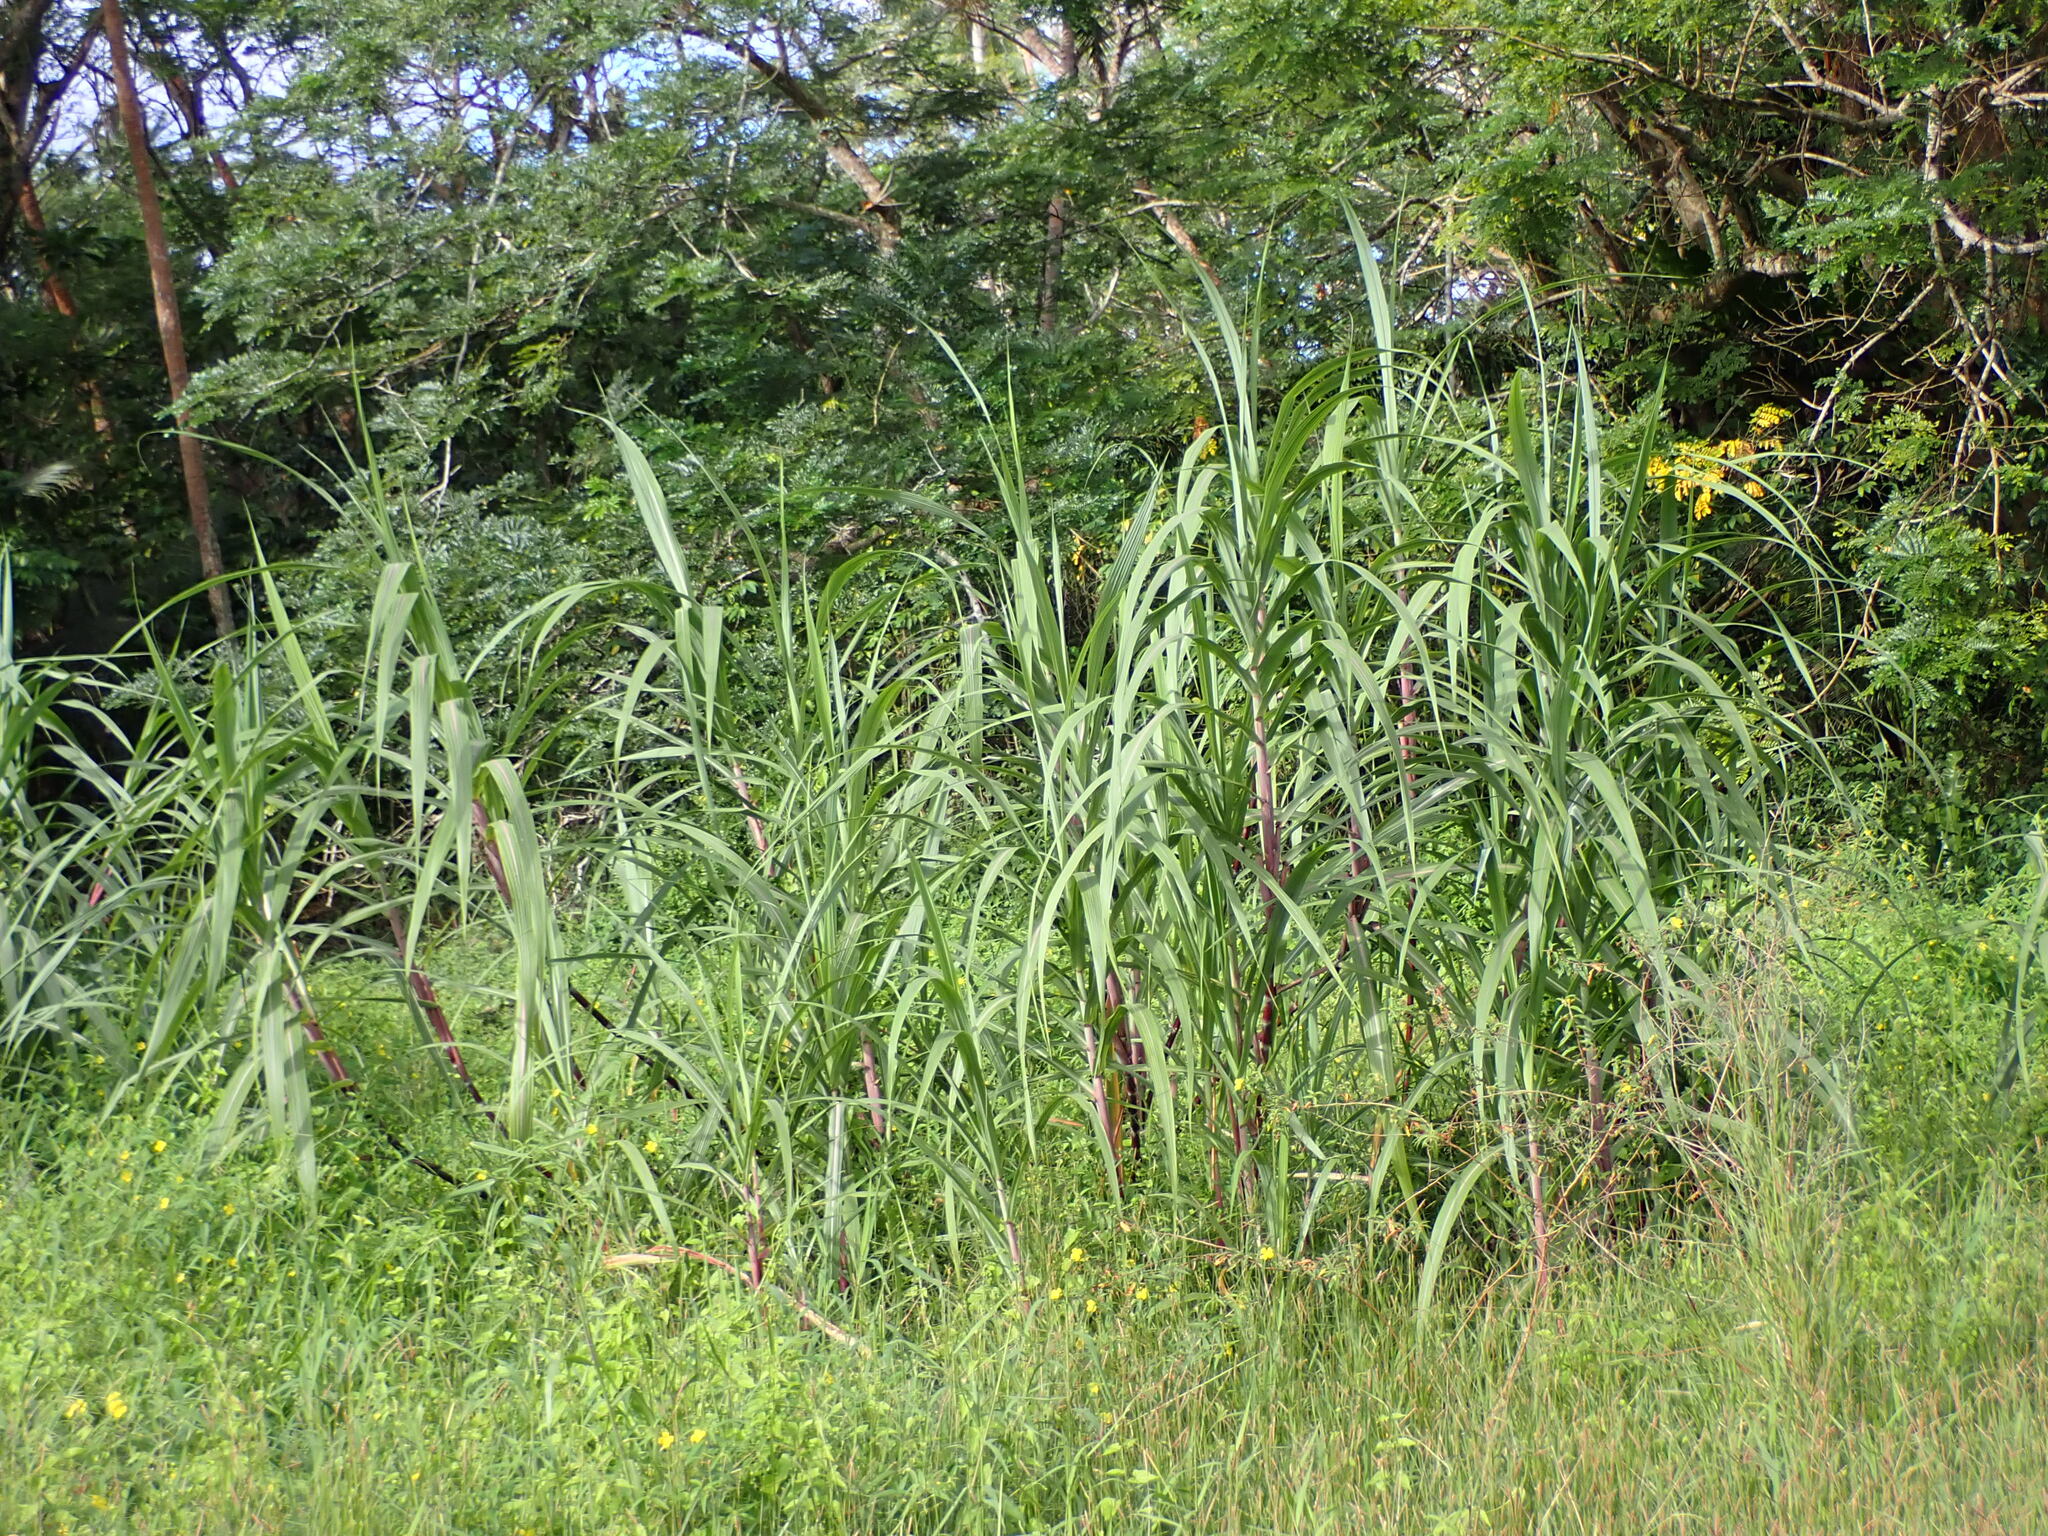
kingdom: Plantae
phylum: Tracheophyta
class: Liliopsida
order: Poales
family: Poaceae
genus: Saccharum
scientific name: Saccharum officinarum
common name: Sugarcane
